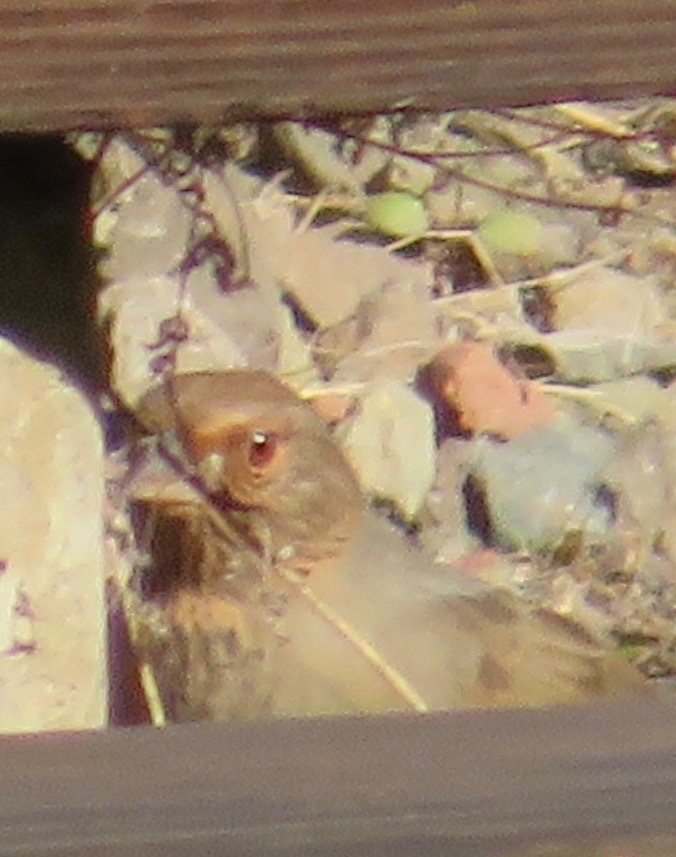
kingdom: Animalia
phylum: Chordata
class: Aves
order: Passeriformes
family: Passerellidae
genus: Melozone
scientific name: Melozone crissalis
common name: California towhee
